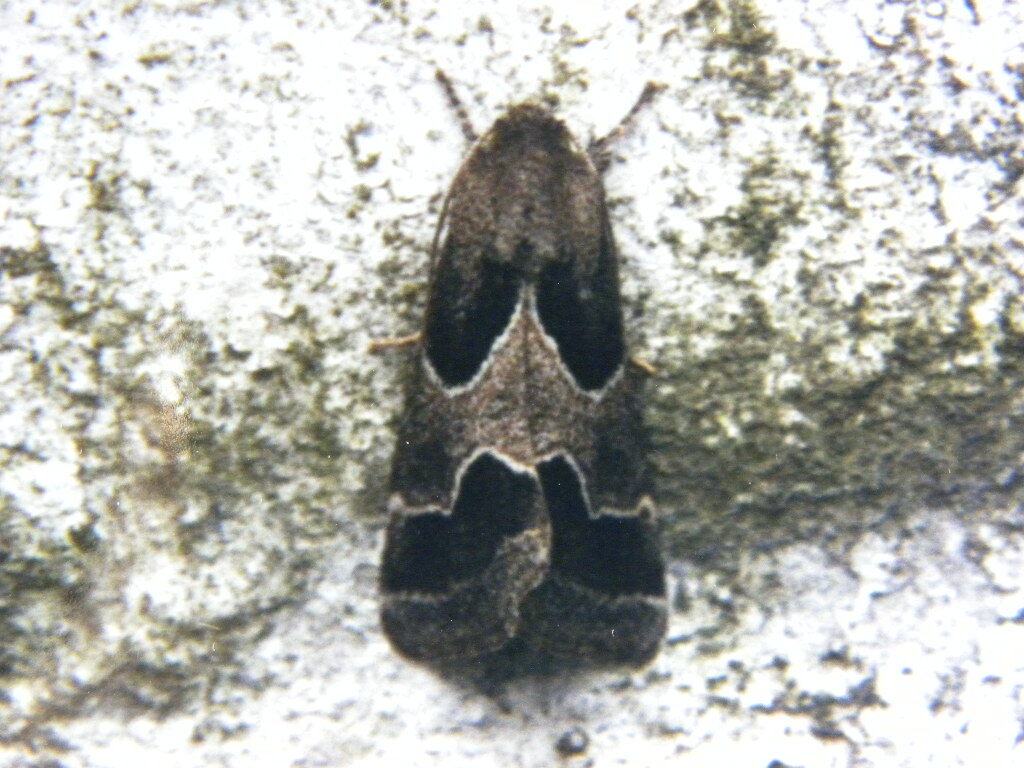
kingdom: Animalia
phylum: Arthropoda
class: Insecta
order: Lepidoptera
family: Noctuidae
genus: Schinia
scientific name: Schinia rivulosa
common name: Scarce meal-moth
